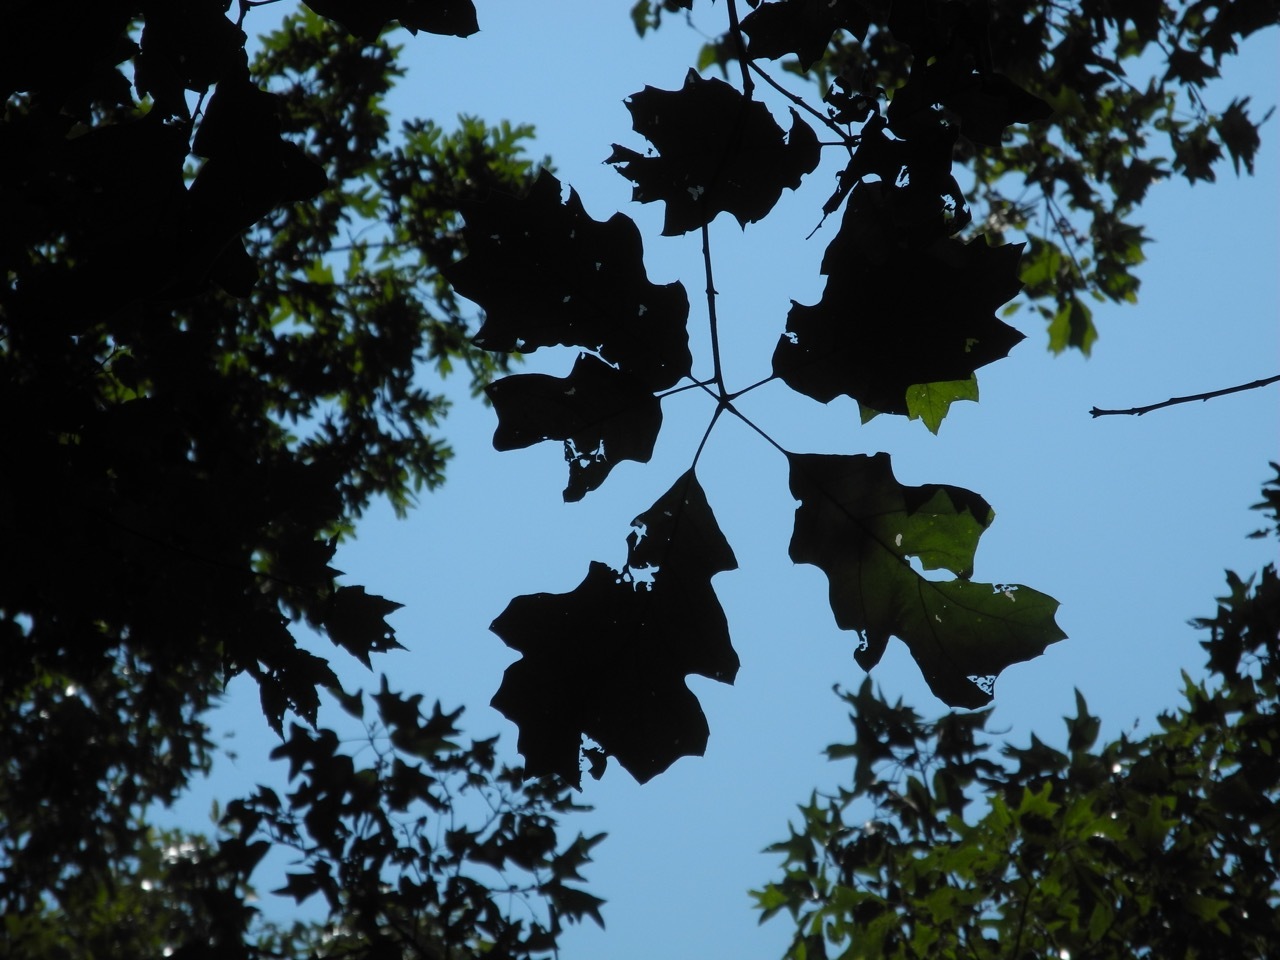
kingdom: Plantae
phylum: Tracheophyta
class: Magnoliopsida
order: Fagales
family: Fagaceae
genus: Quercus
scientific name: Quercus velutina
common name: Black oak
